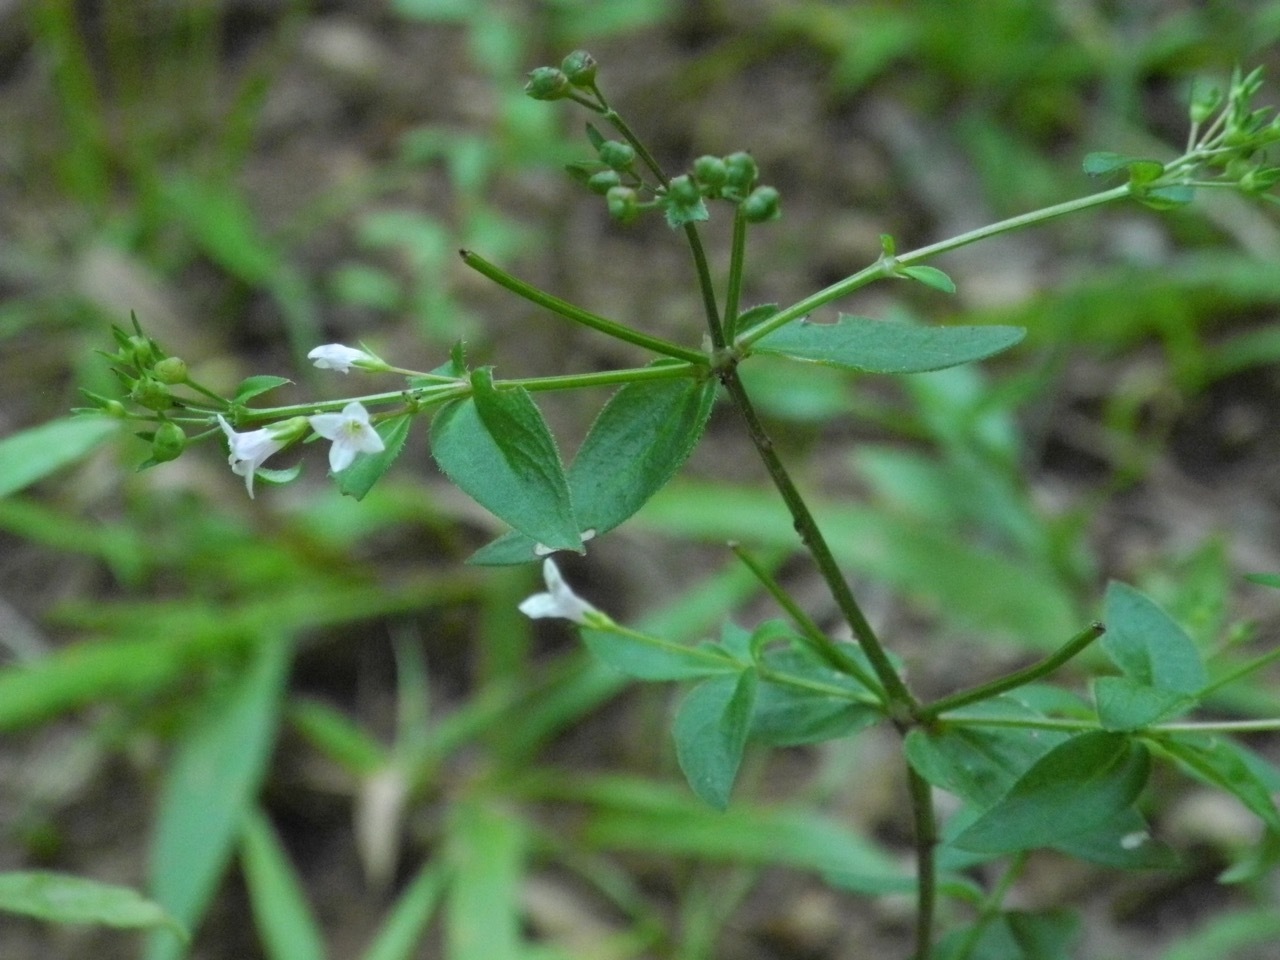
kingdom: Plantae
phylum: Tracheophyta
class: Magnoliopsida
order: Gentianales
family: Rubiaceae
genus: Houstonia
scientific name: Houstonia purpurea
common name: Summer bluet
